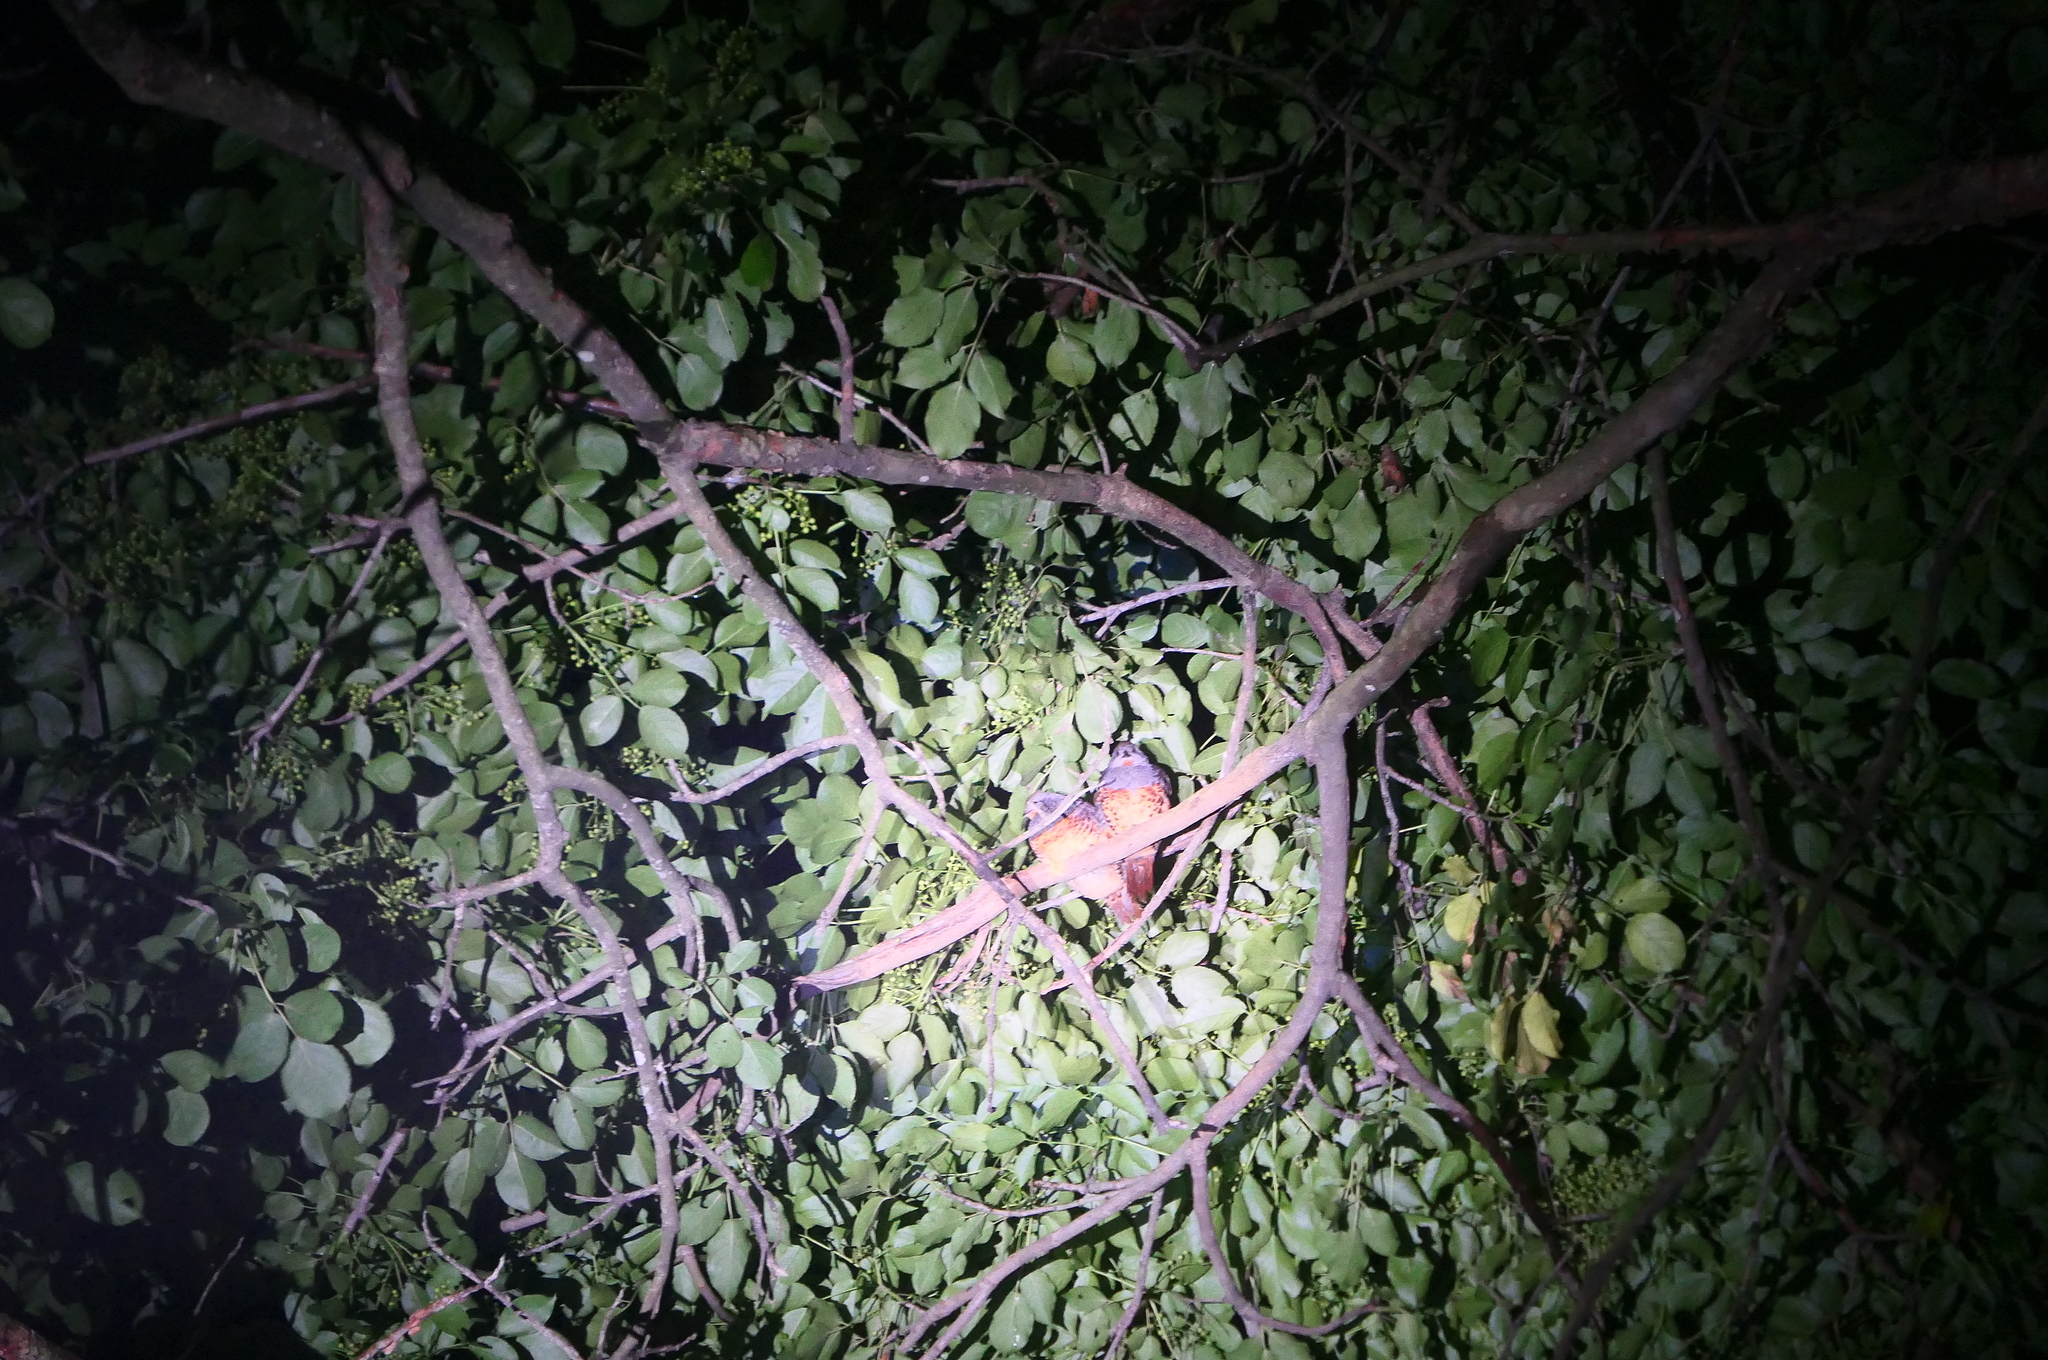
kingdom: Animalia
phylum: Chordata
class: Aves
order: Galliformes
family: Phasianidae
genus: Bambusicola
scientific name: Bambusicola sonorivox
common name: Taiwan bamboo-partridge
